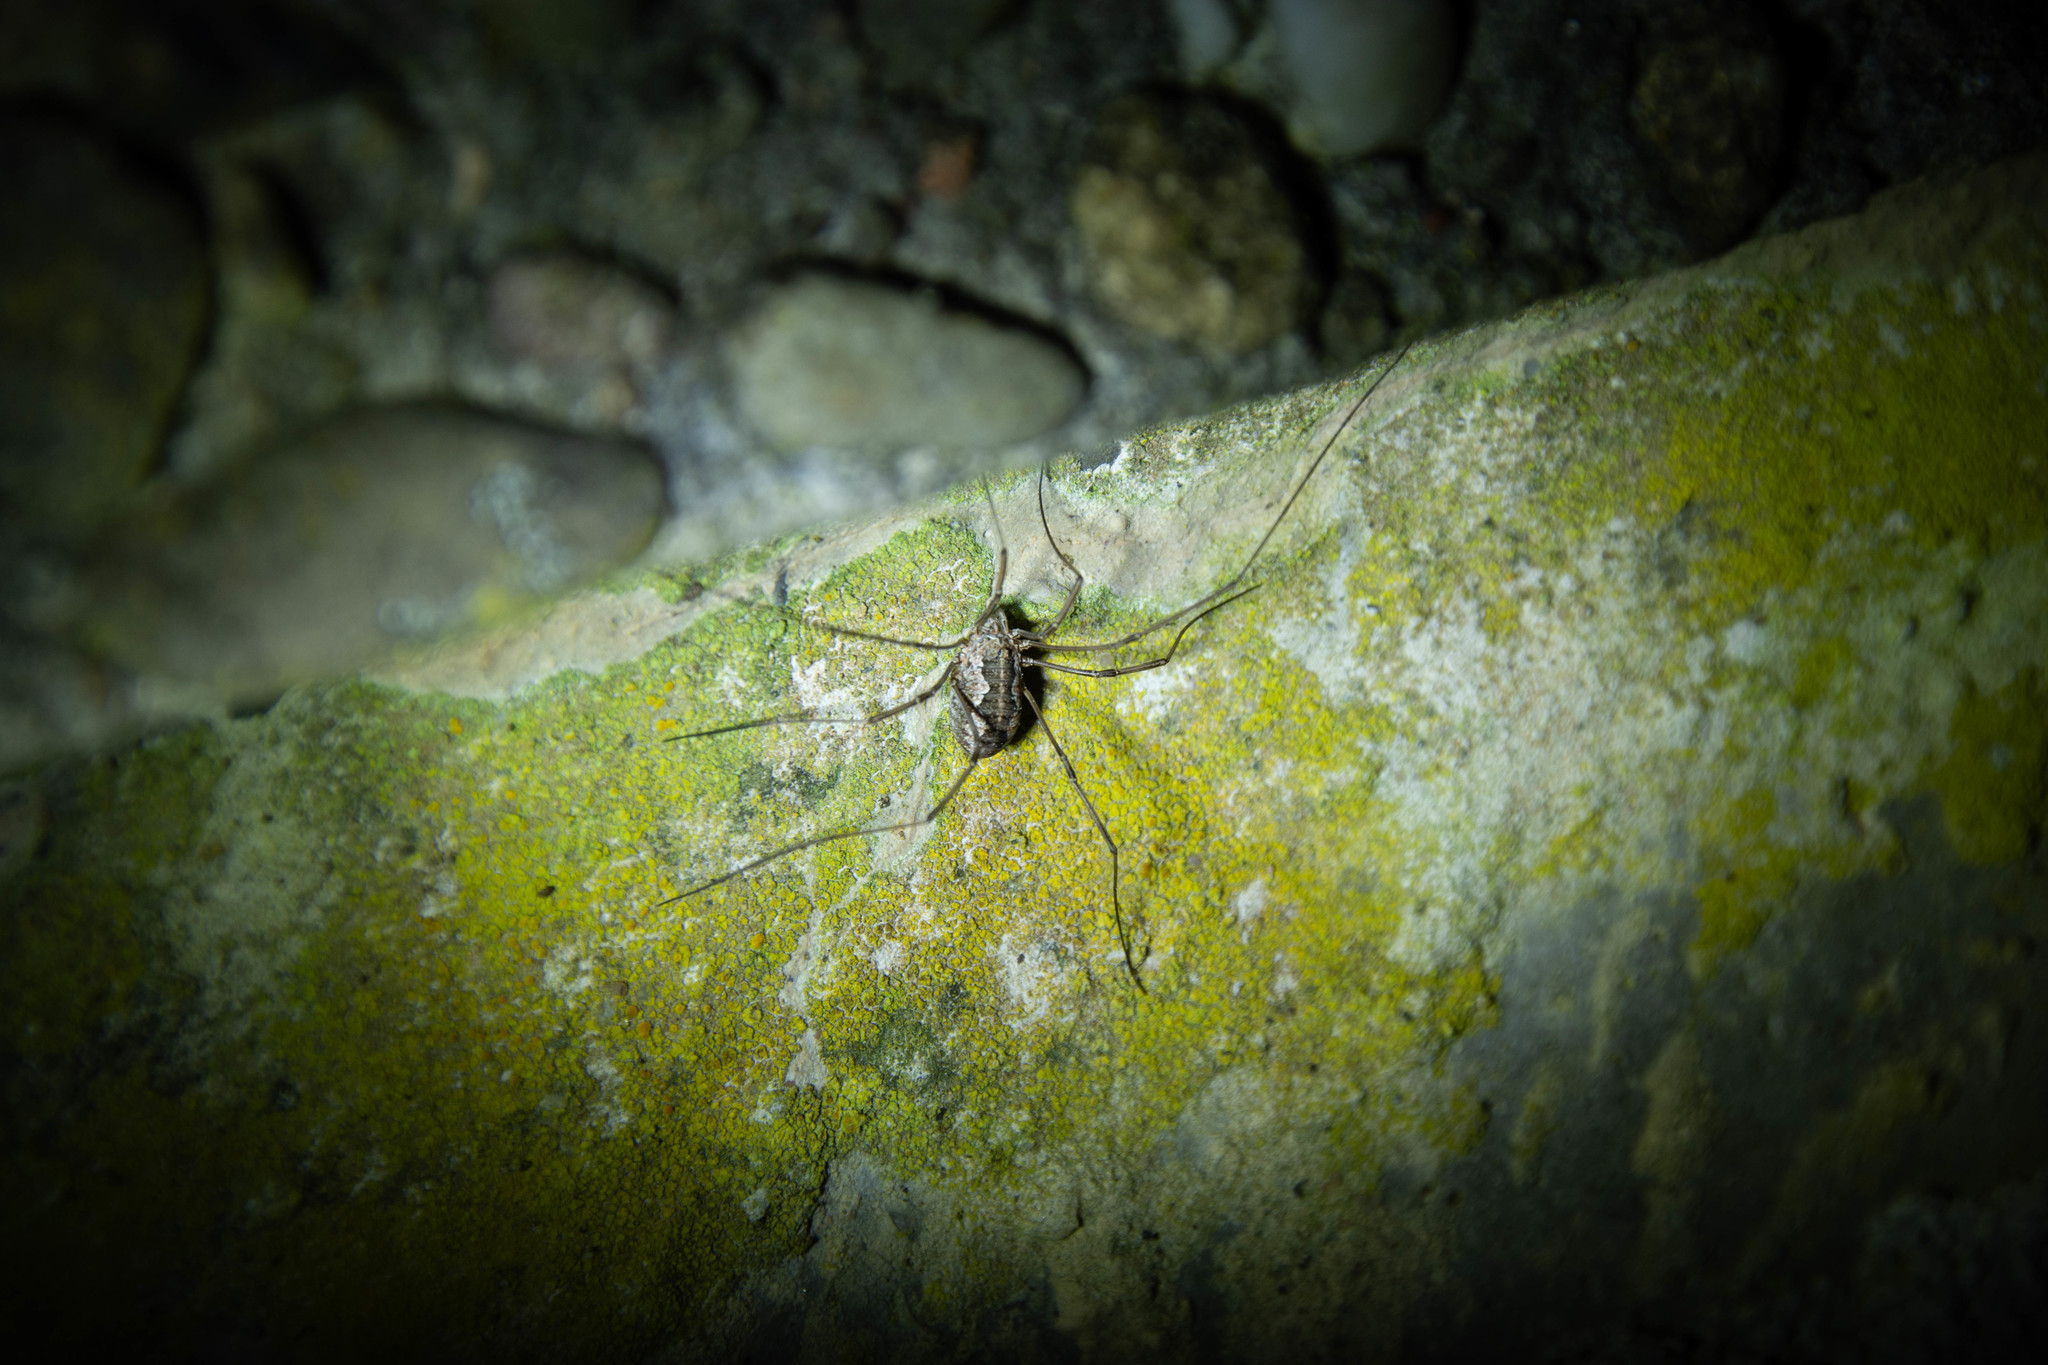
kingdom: Animalia
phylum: Arthropoda
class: Arachnida
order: Opiliones
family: Phalangiidae
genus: Phalangium
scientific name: Phalangium opilio
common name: Daddy longleg
